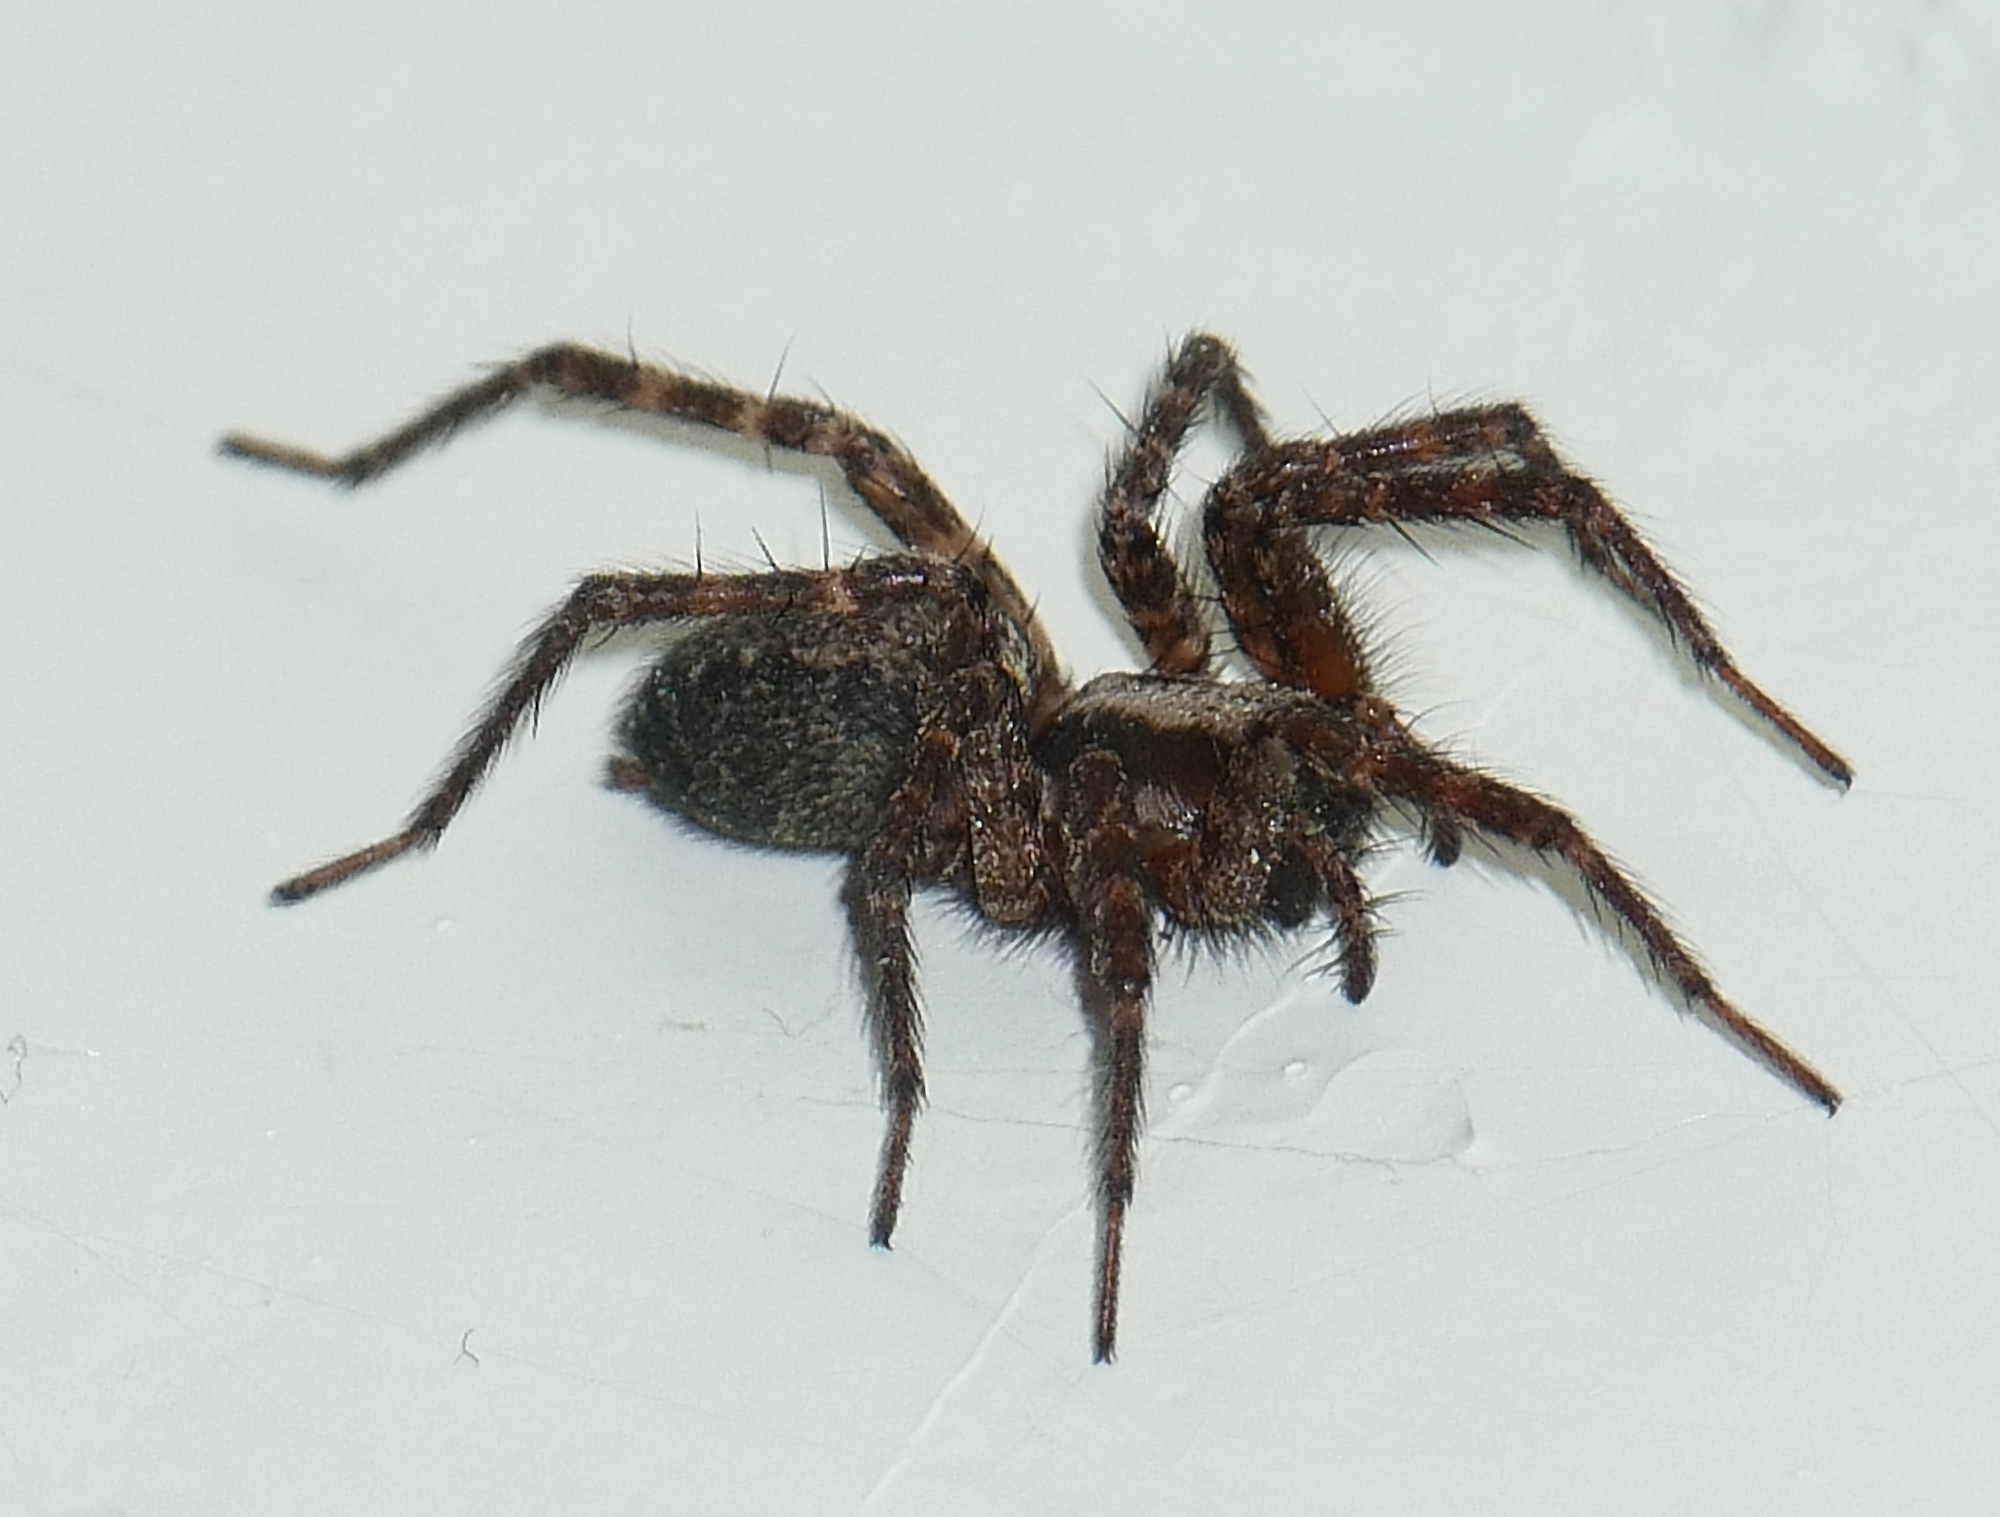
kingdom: Animalia
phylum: Arthropoda
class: Arachnida
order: Araneae
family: Agelenidae
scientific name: Agelenidae
